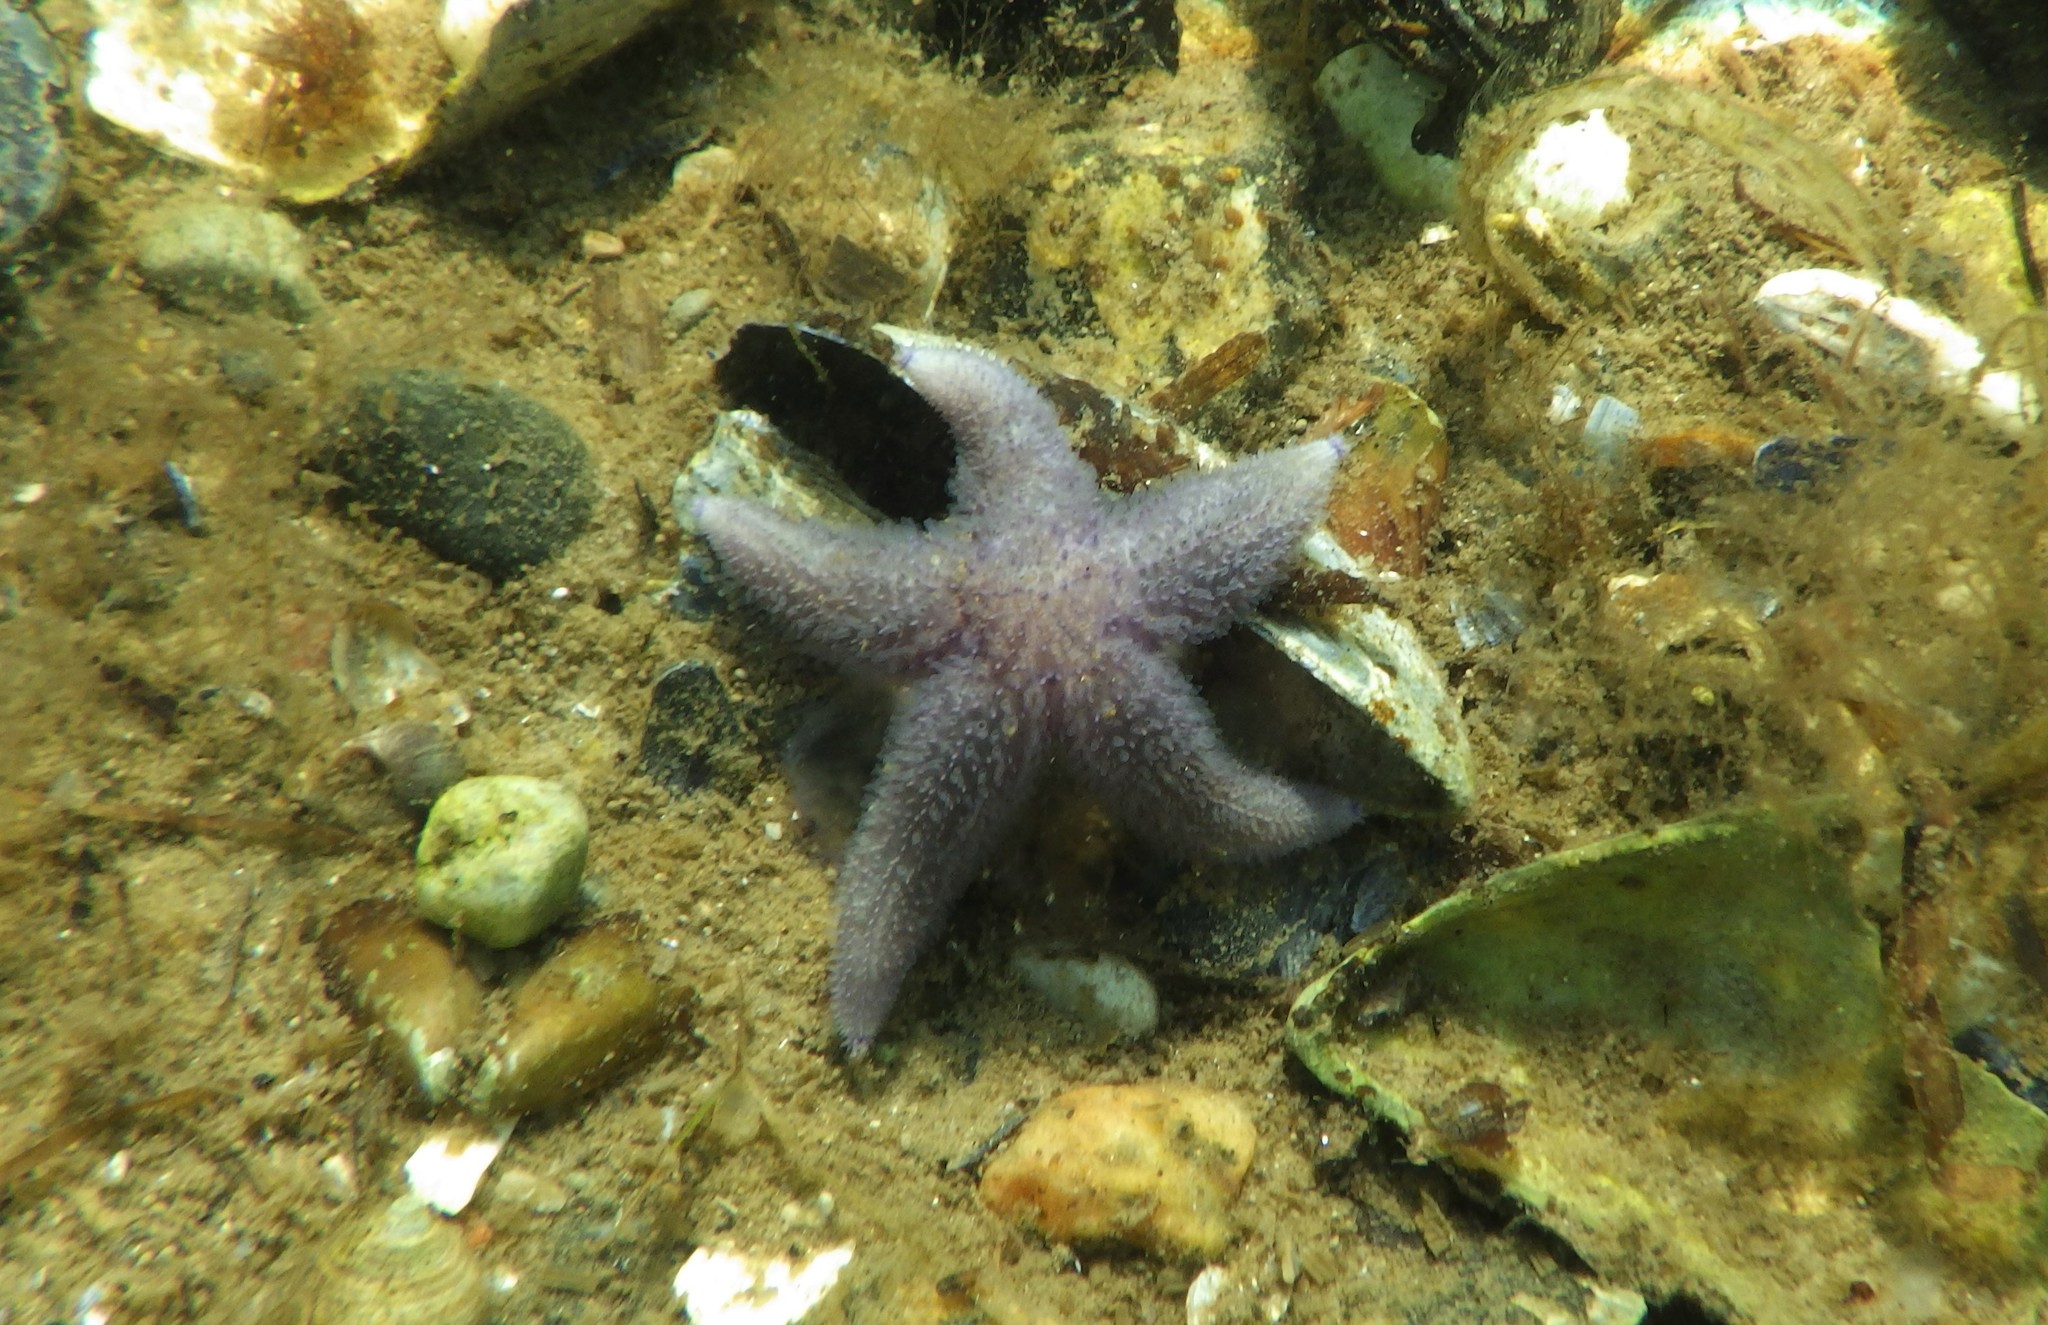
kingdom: Animalia
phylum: Echinodermata
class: Asteroidea
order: Forcipulatida
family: Asteriidae
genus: Asterias
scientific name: Asterias rubens
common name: Common starfish
